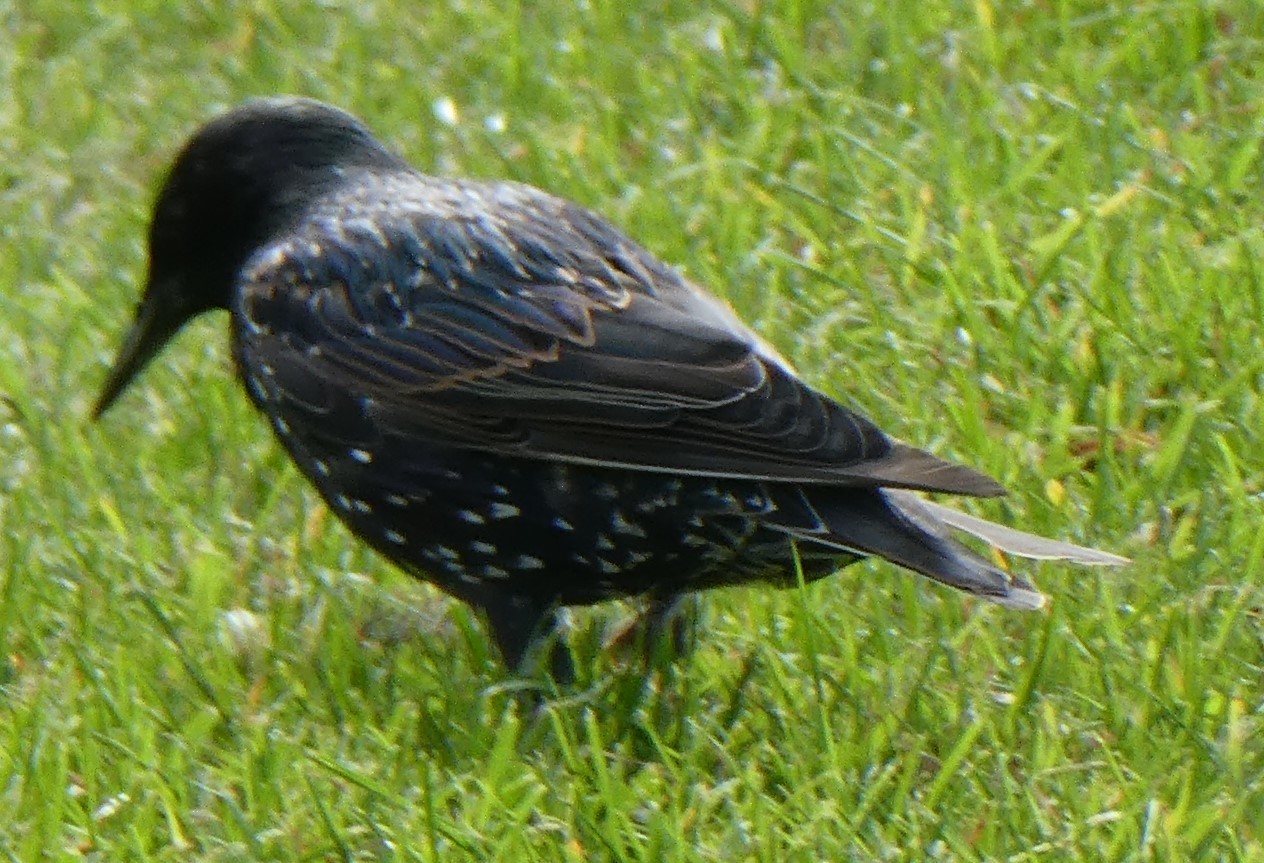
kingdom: Animalia
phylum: Chordata
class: Aves
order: Passeriformes
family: Sturnidae
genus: Sturnus
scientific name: Sturnus vulgaris
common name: Common starling
